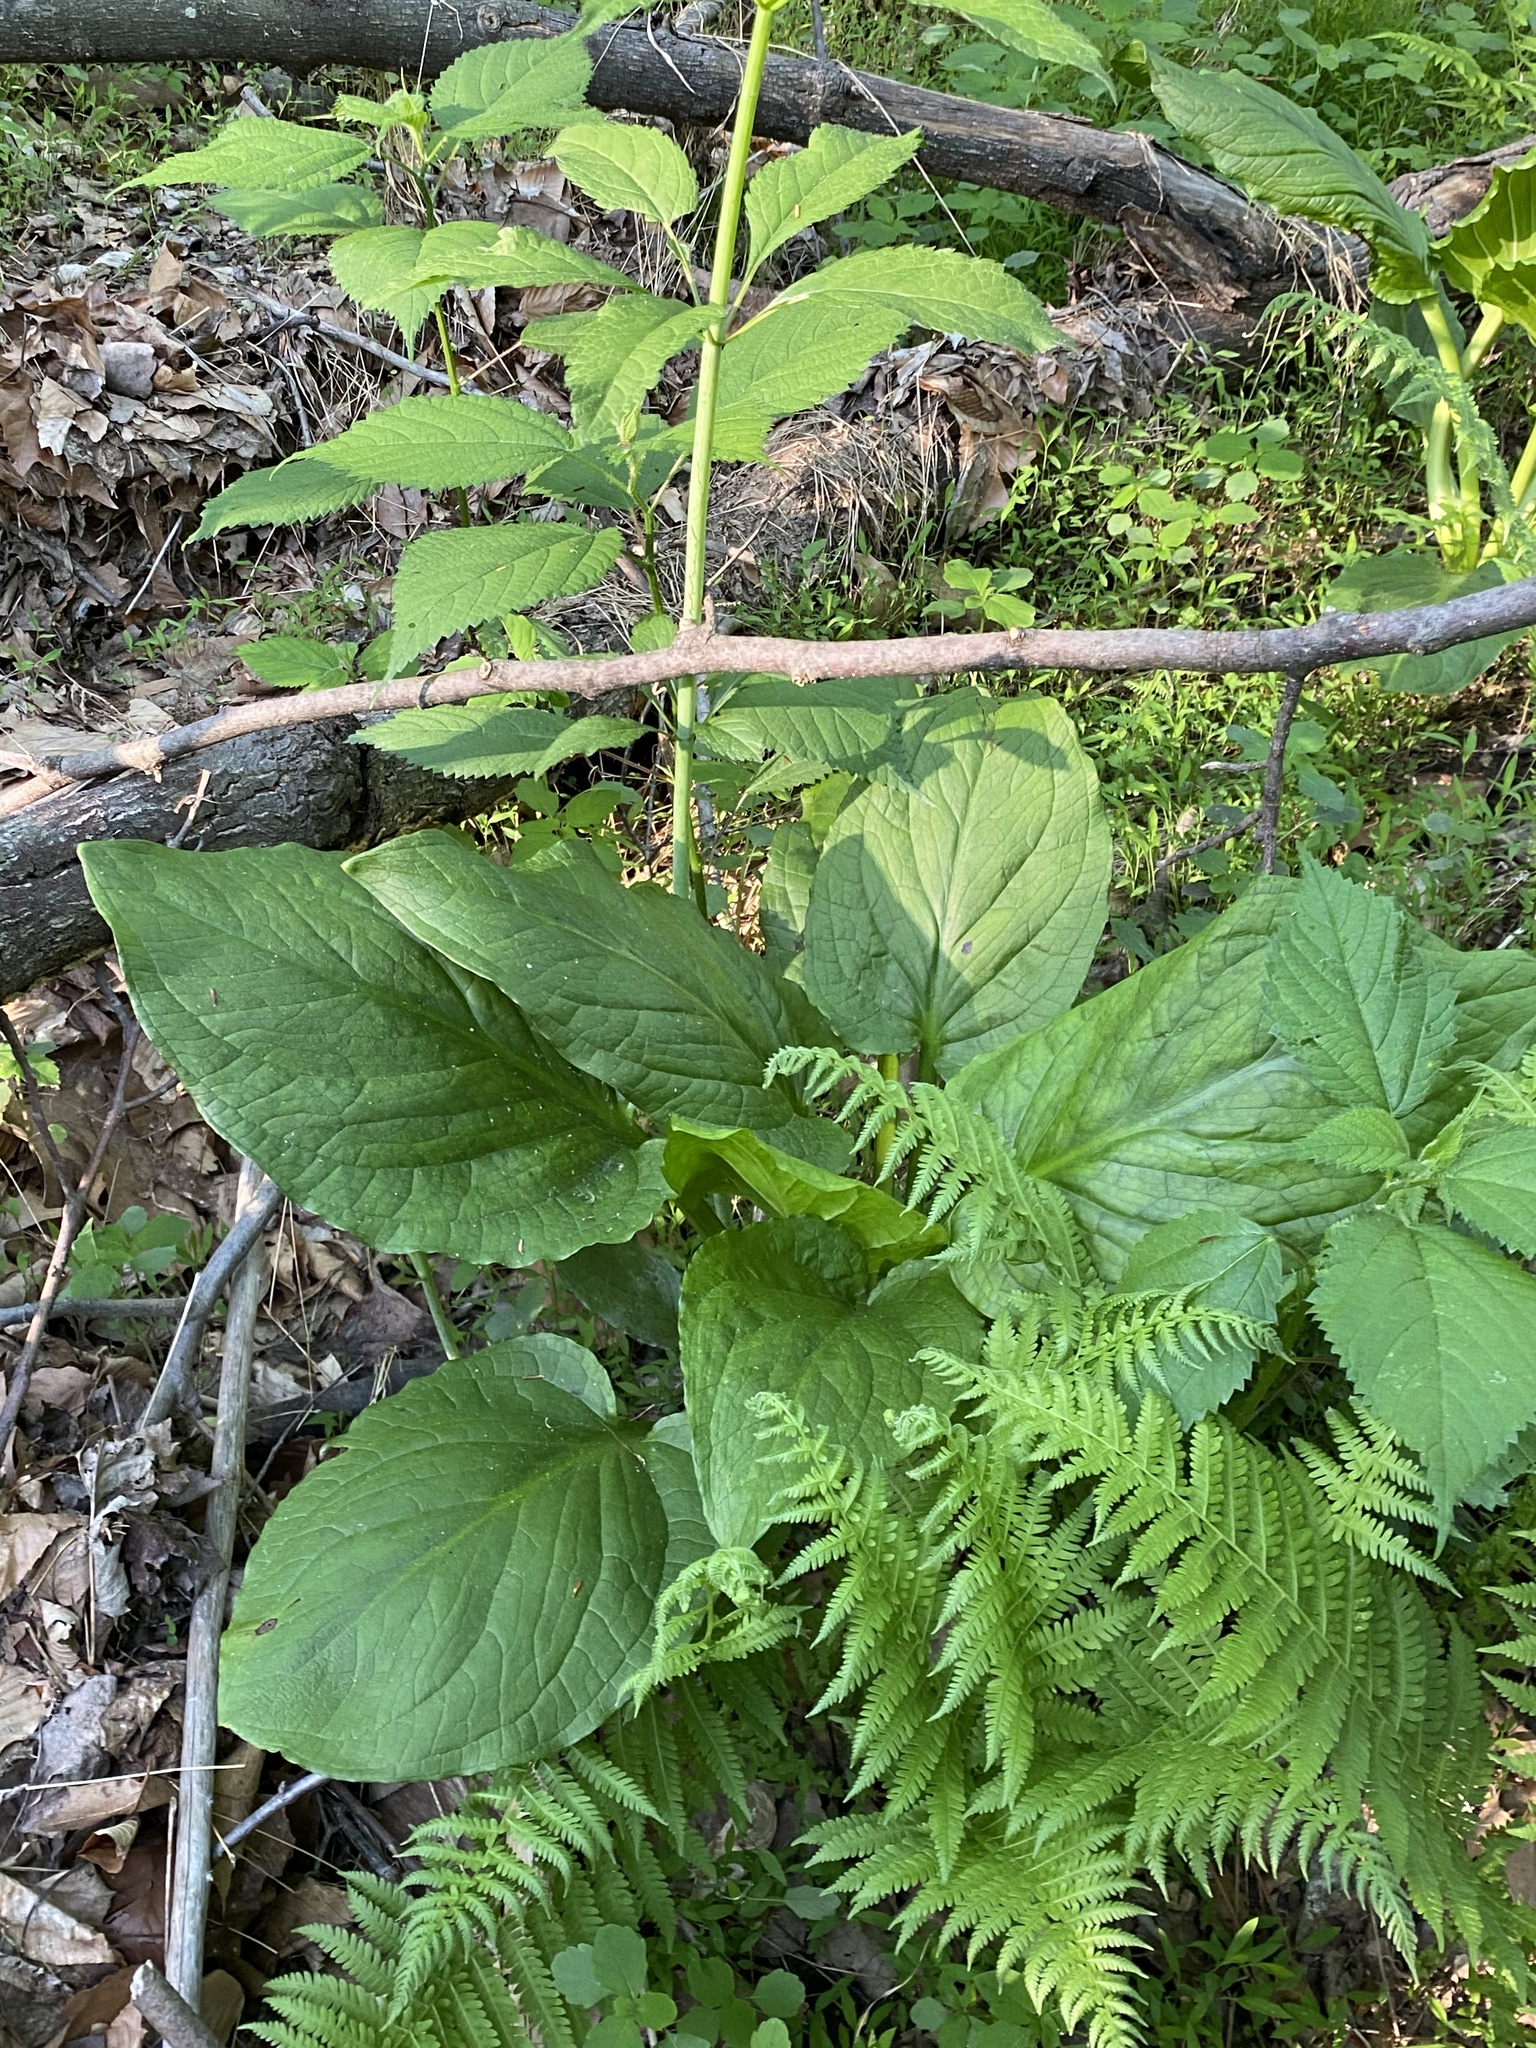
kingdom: Plantae
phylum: Tracheophyta
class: Liliopsida
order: Alismatales
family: Araceae
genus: Symplocarpus
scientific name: Symplocarpus foetidus
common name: Eastern skunk cabbage
